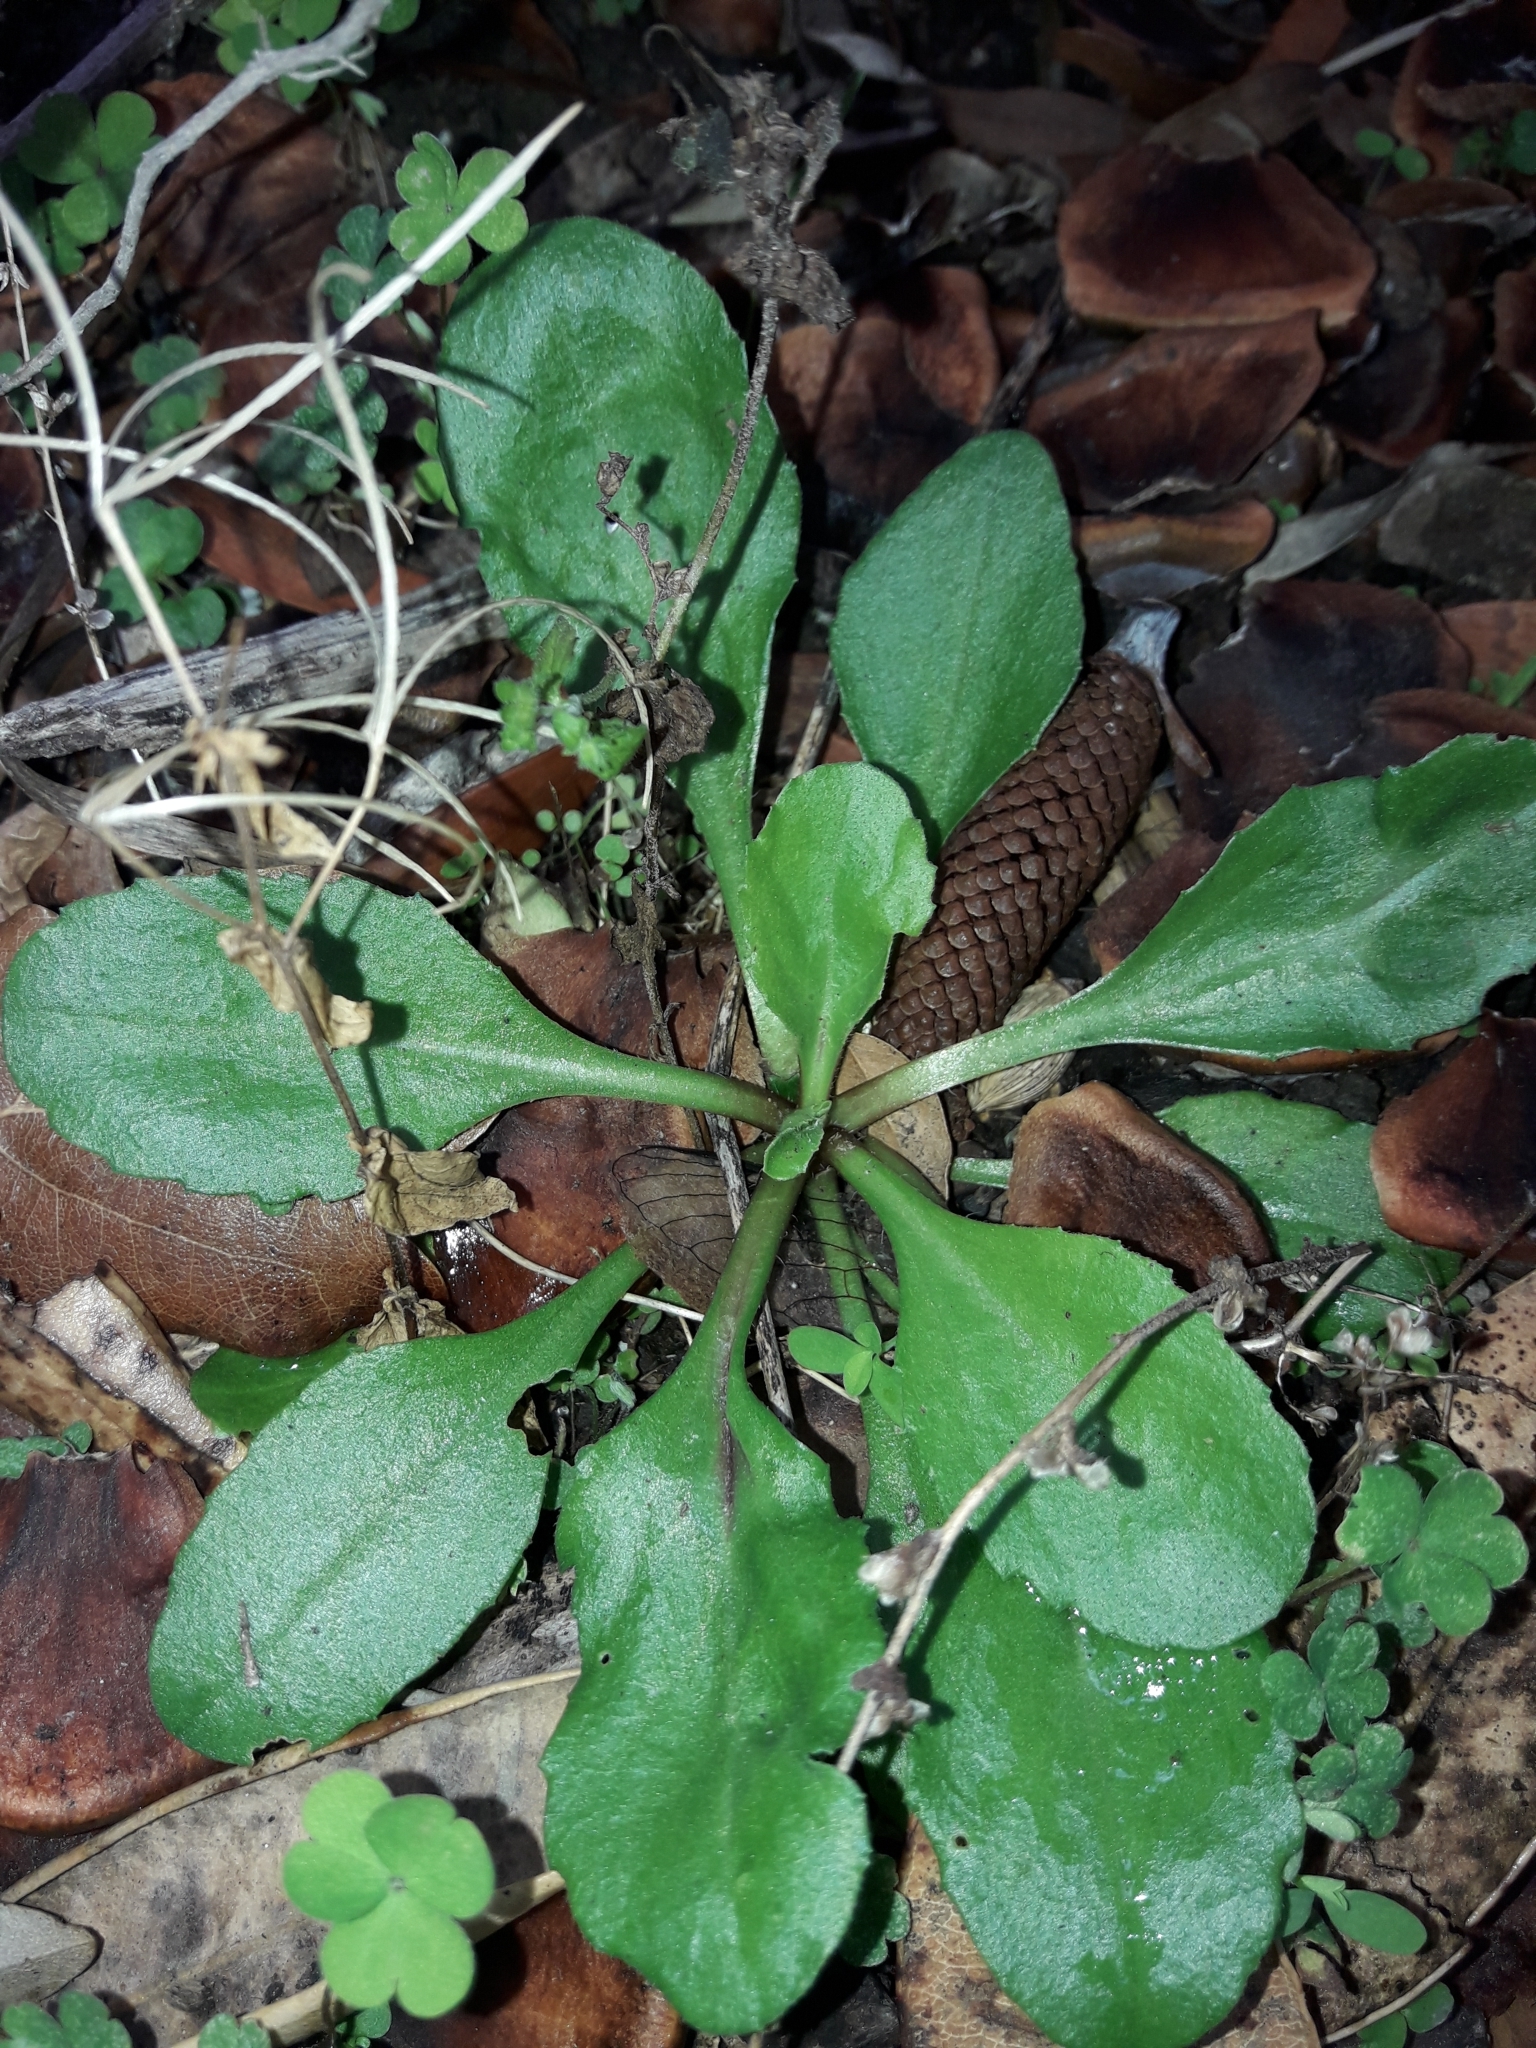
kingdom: Plantae
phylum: Tracheophyta
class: Magnoliopsida
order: Asterales
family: Asteraceae
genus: Bellis
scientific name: Bellis perennis
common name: Lawndaisy
